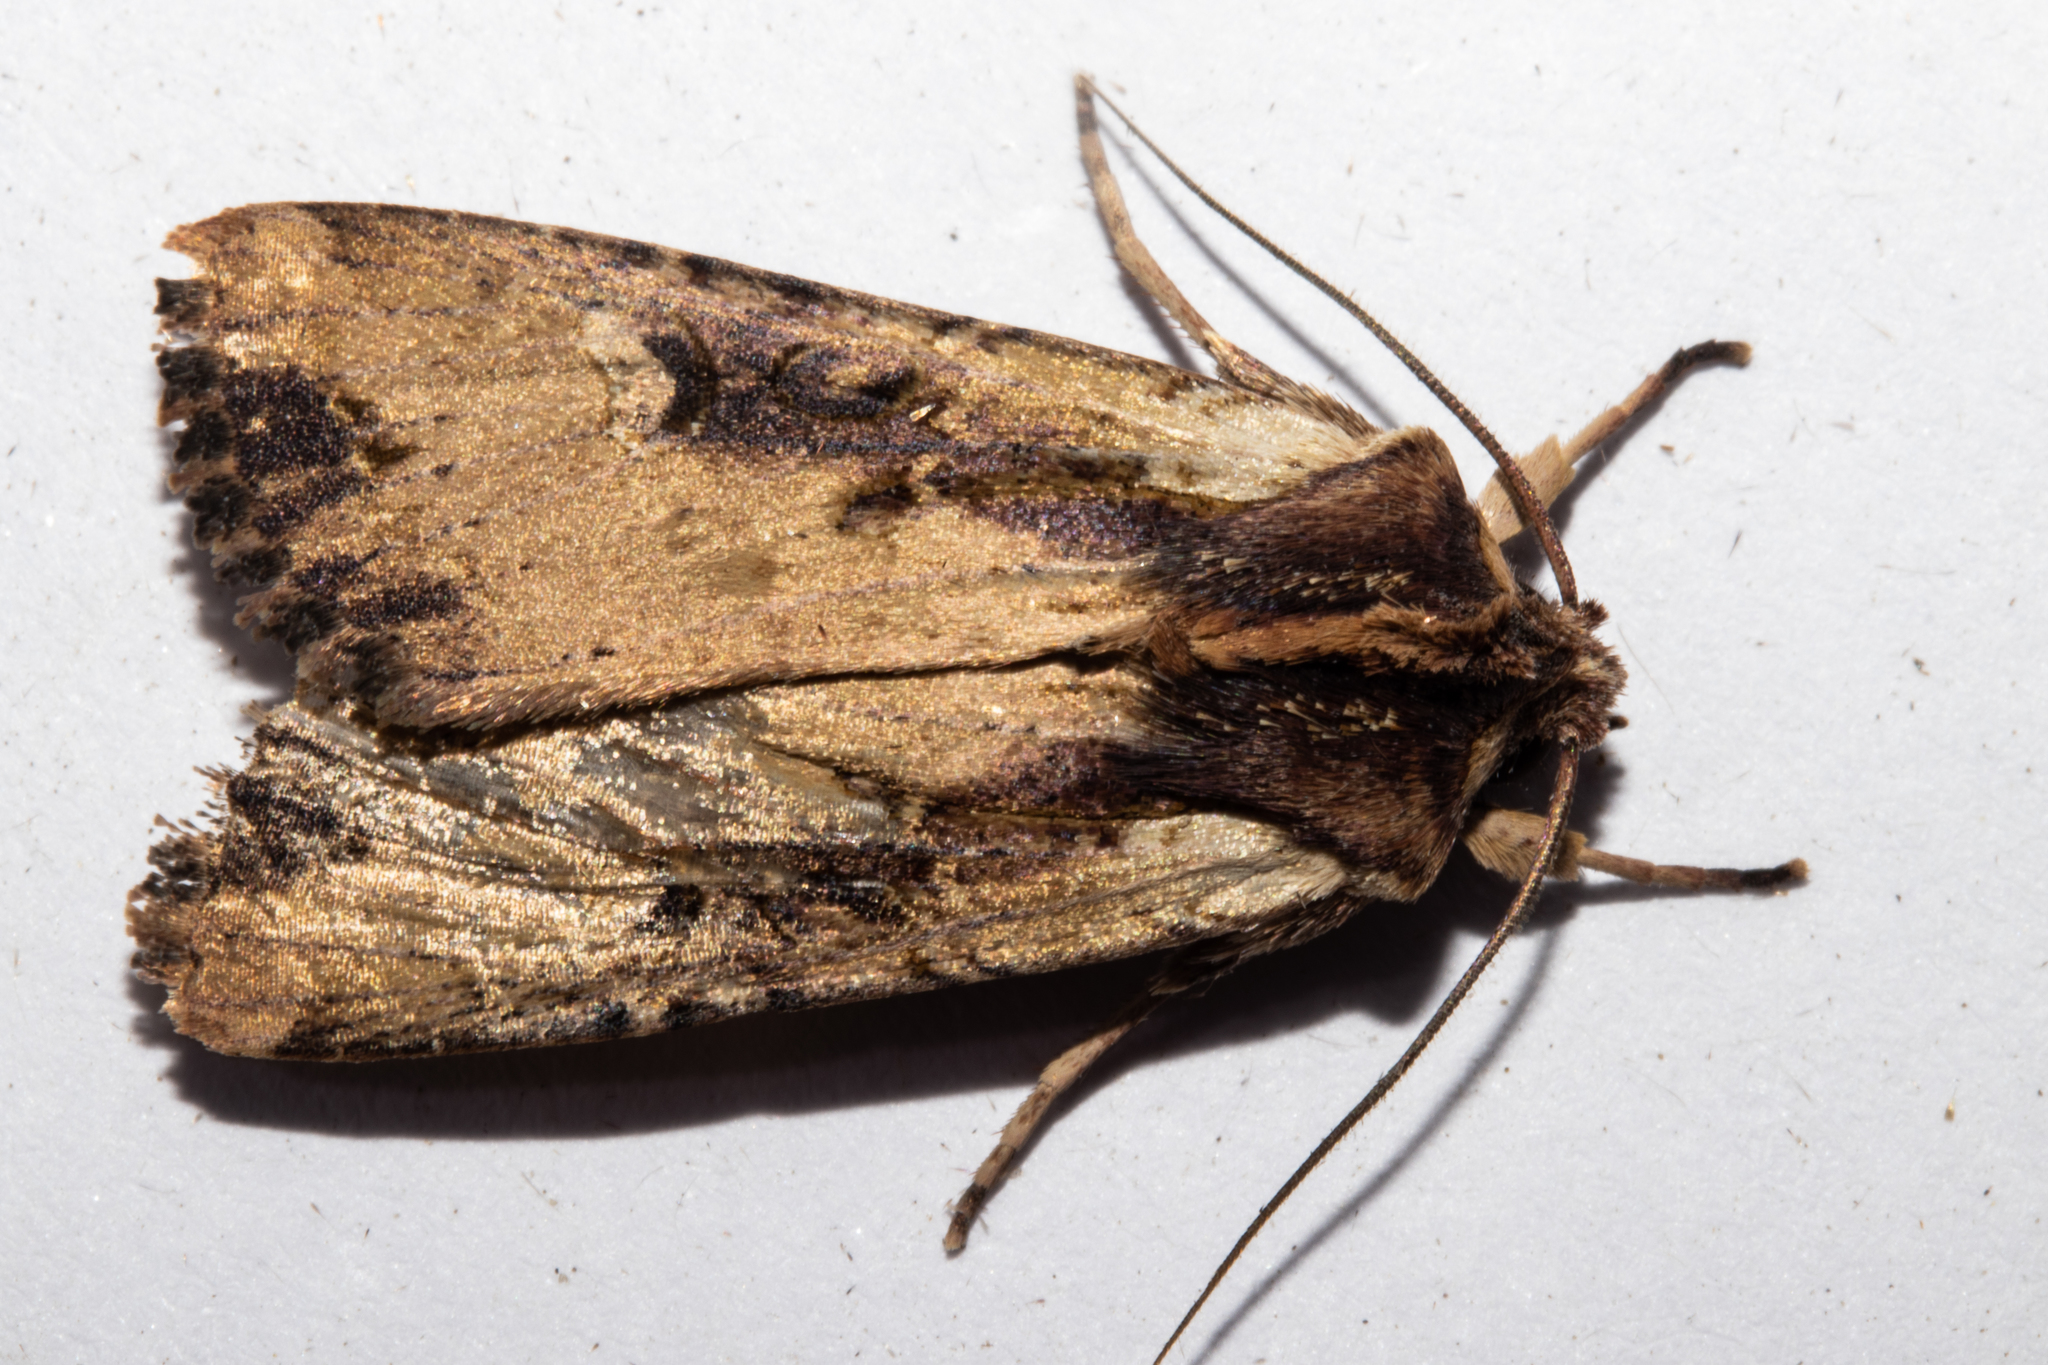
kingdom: Animalia
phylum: Arthropoda
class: Insecta
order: Lepidoptera
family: Noctuidae
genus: Ichneutica
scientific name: Ichneutica omoplaca
